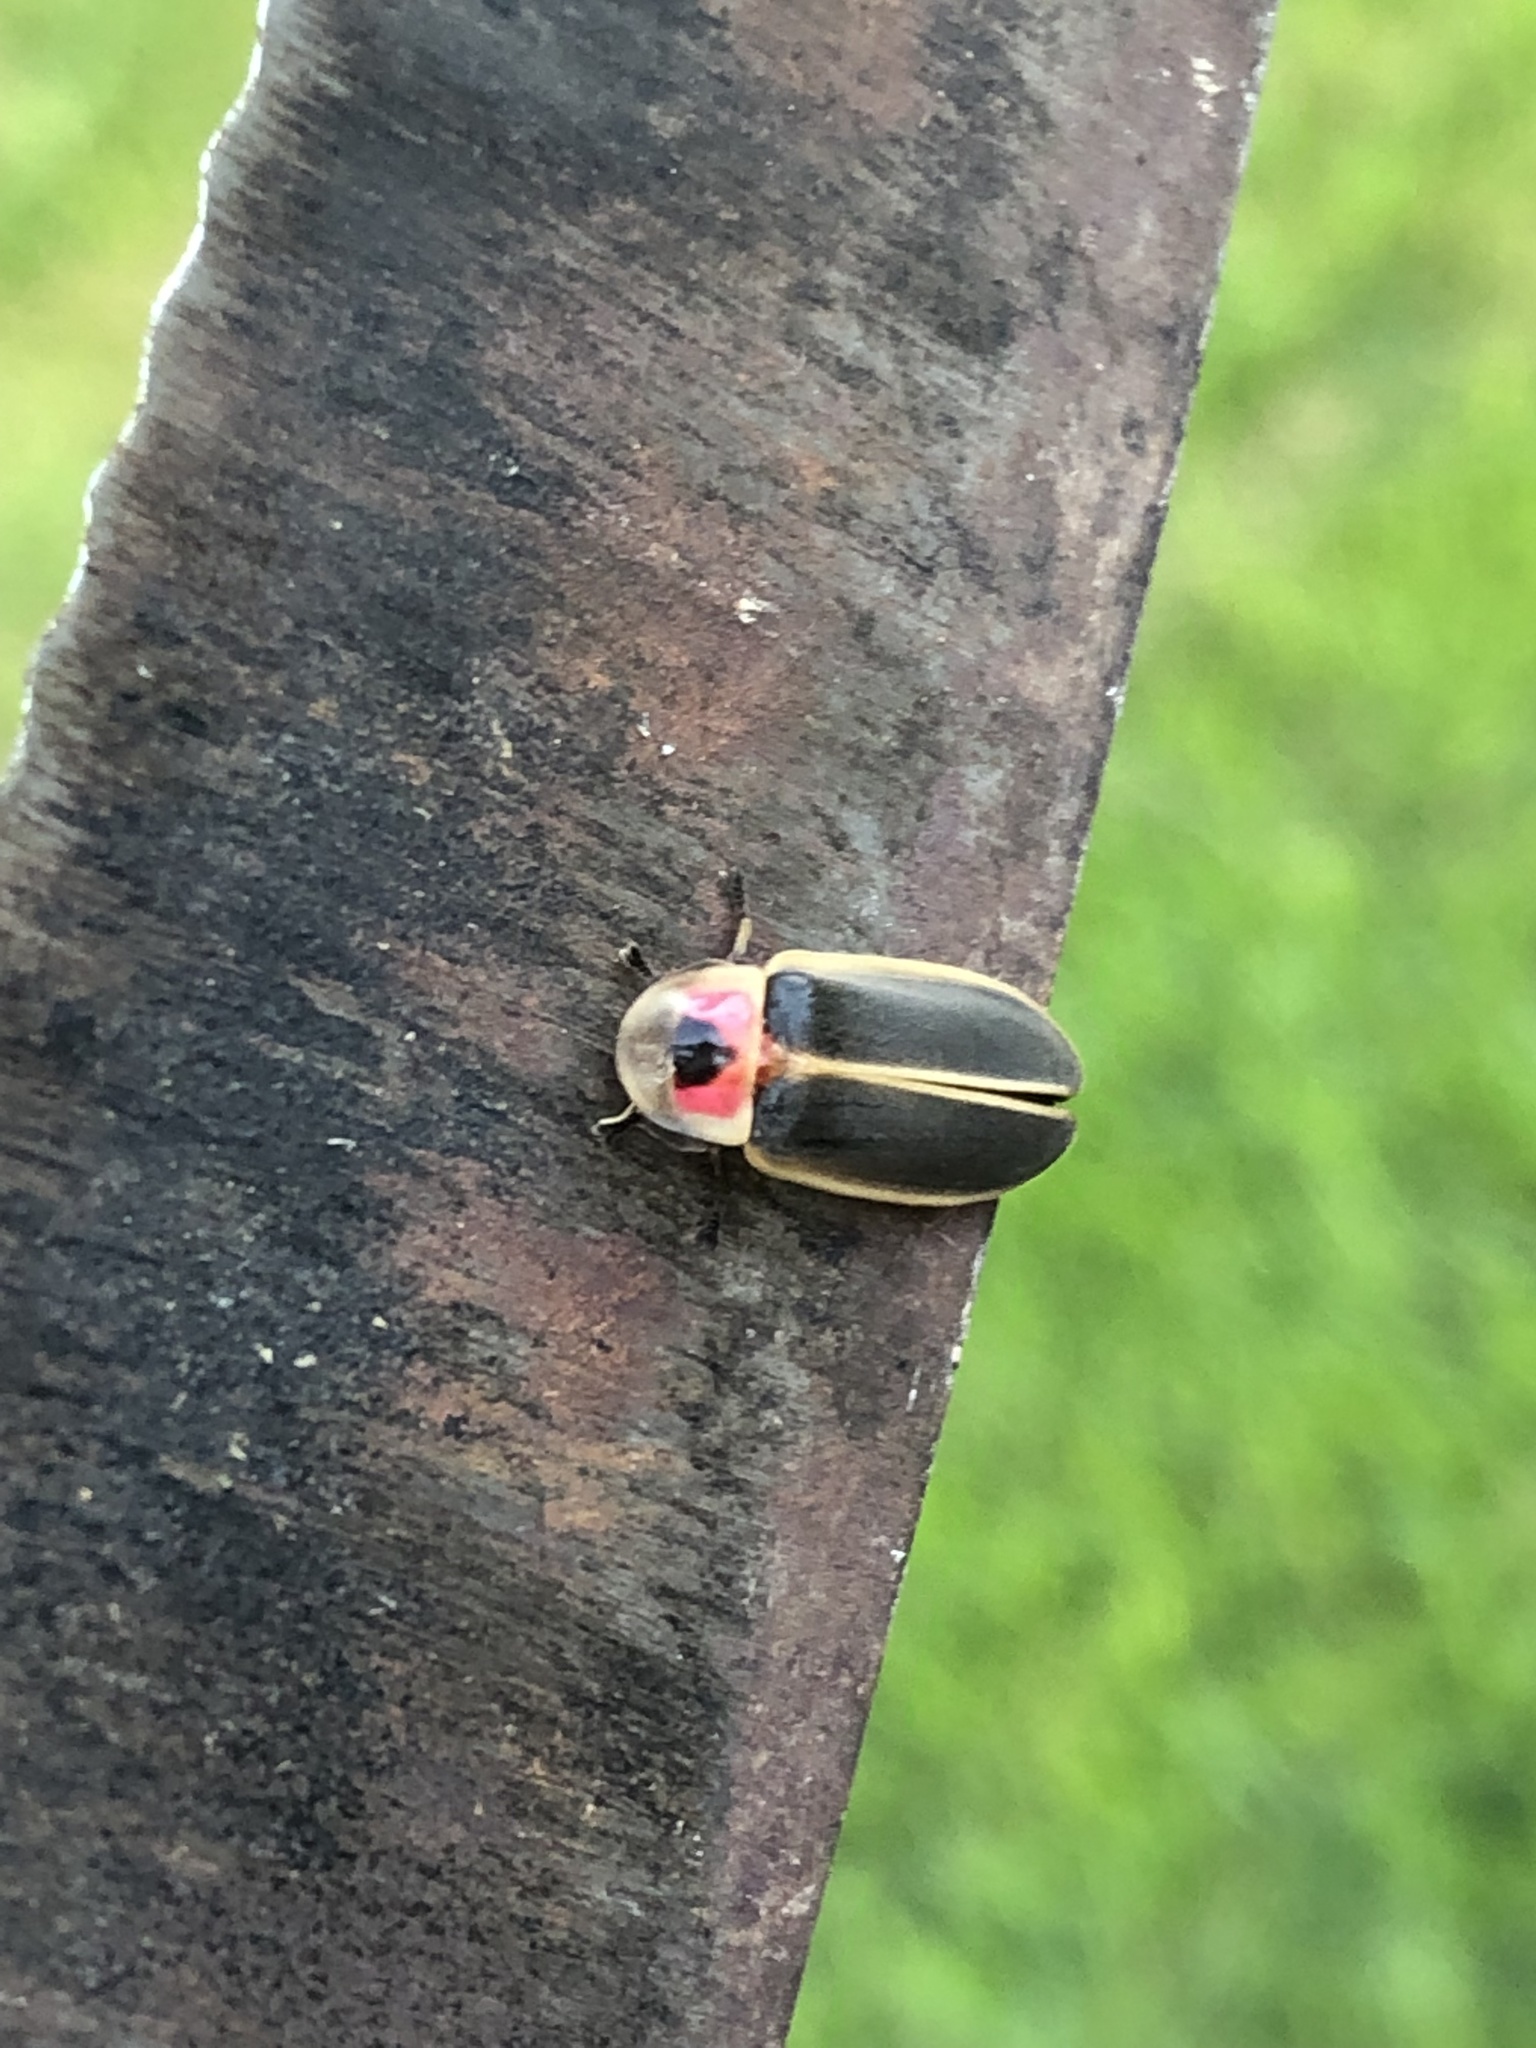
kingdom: Animalia
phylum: Arthropoda
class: Insecta
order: Coleoptera
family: Lampyridae
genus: Photinus
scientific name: Photinus pyralis
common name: Big dipper firefly
